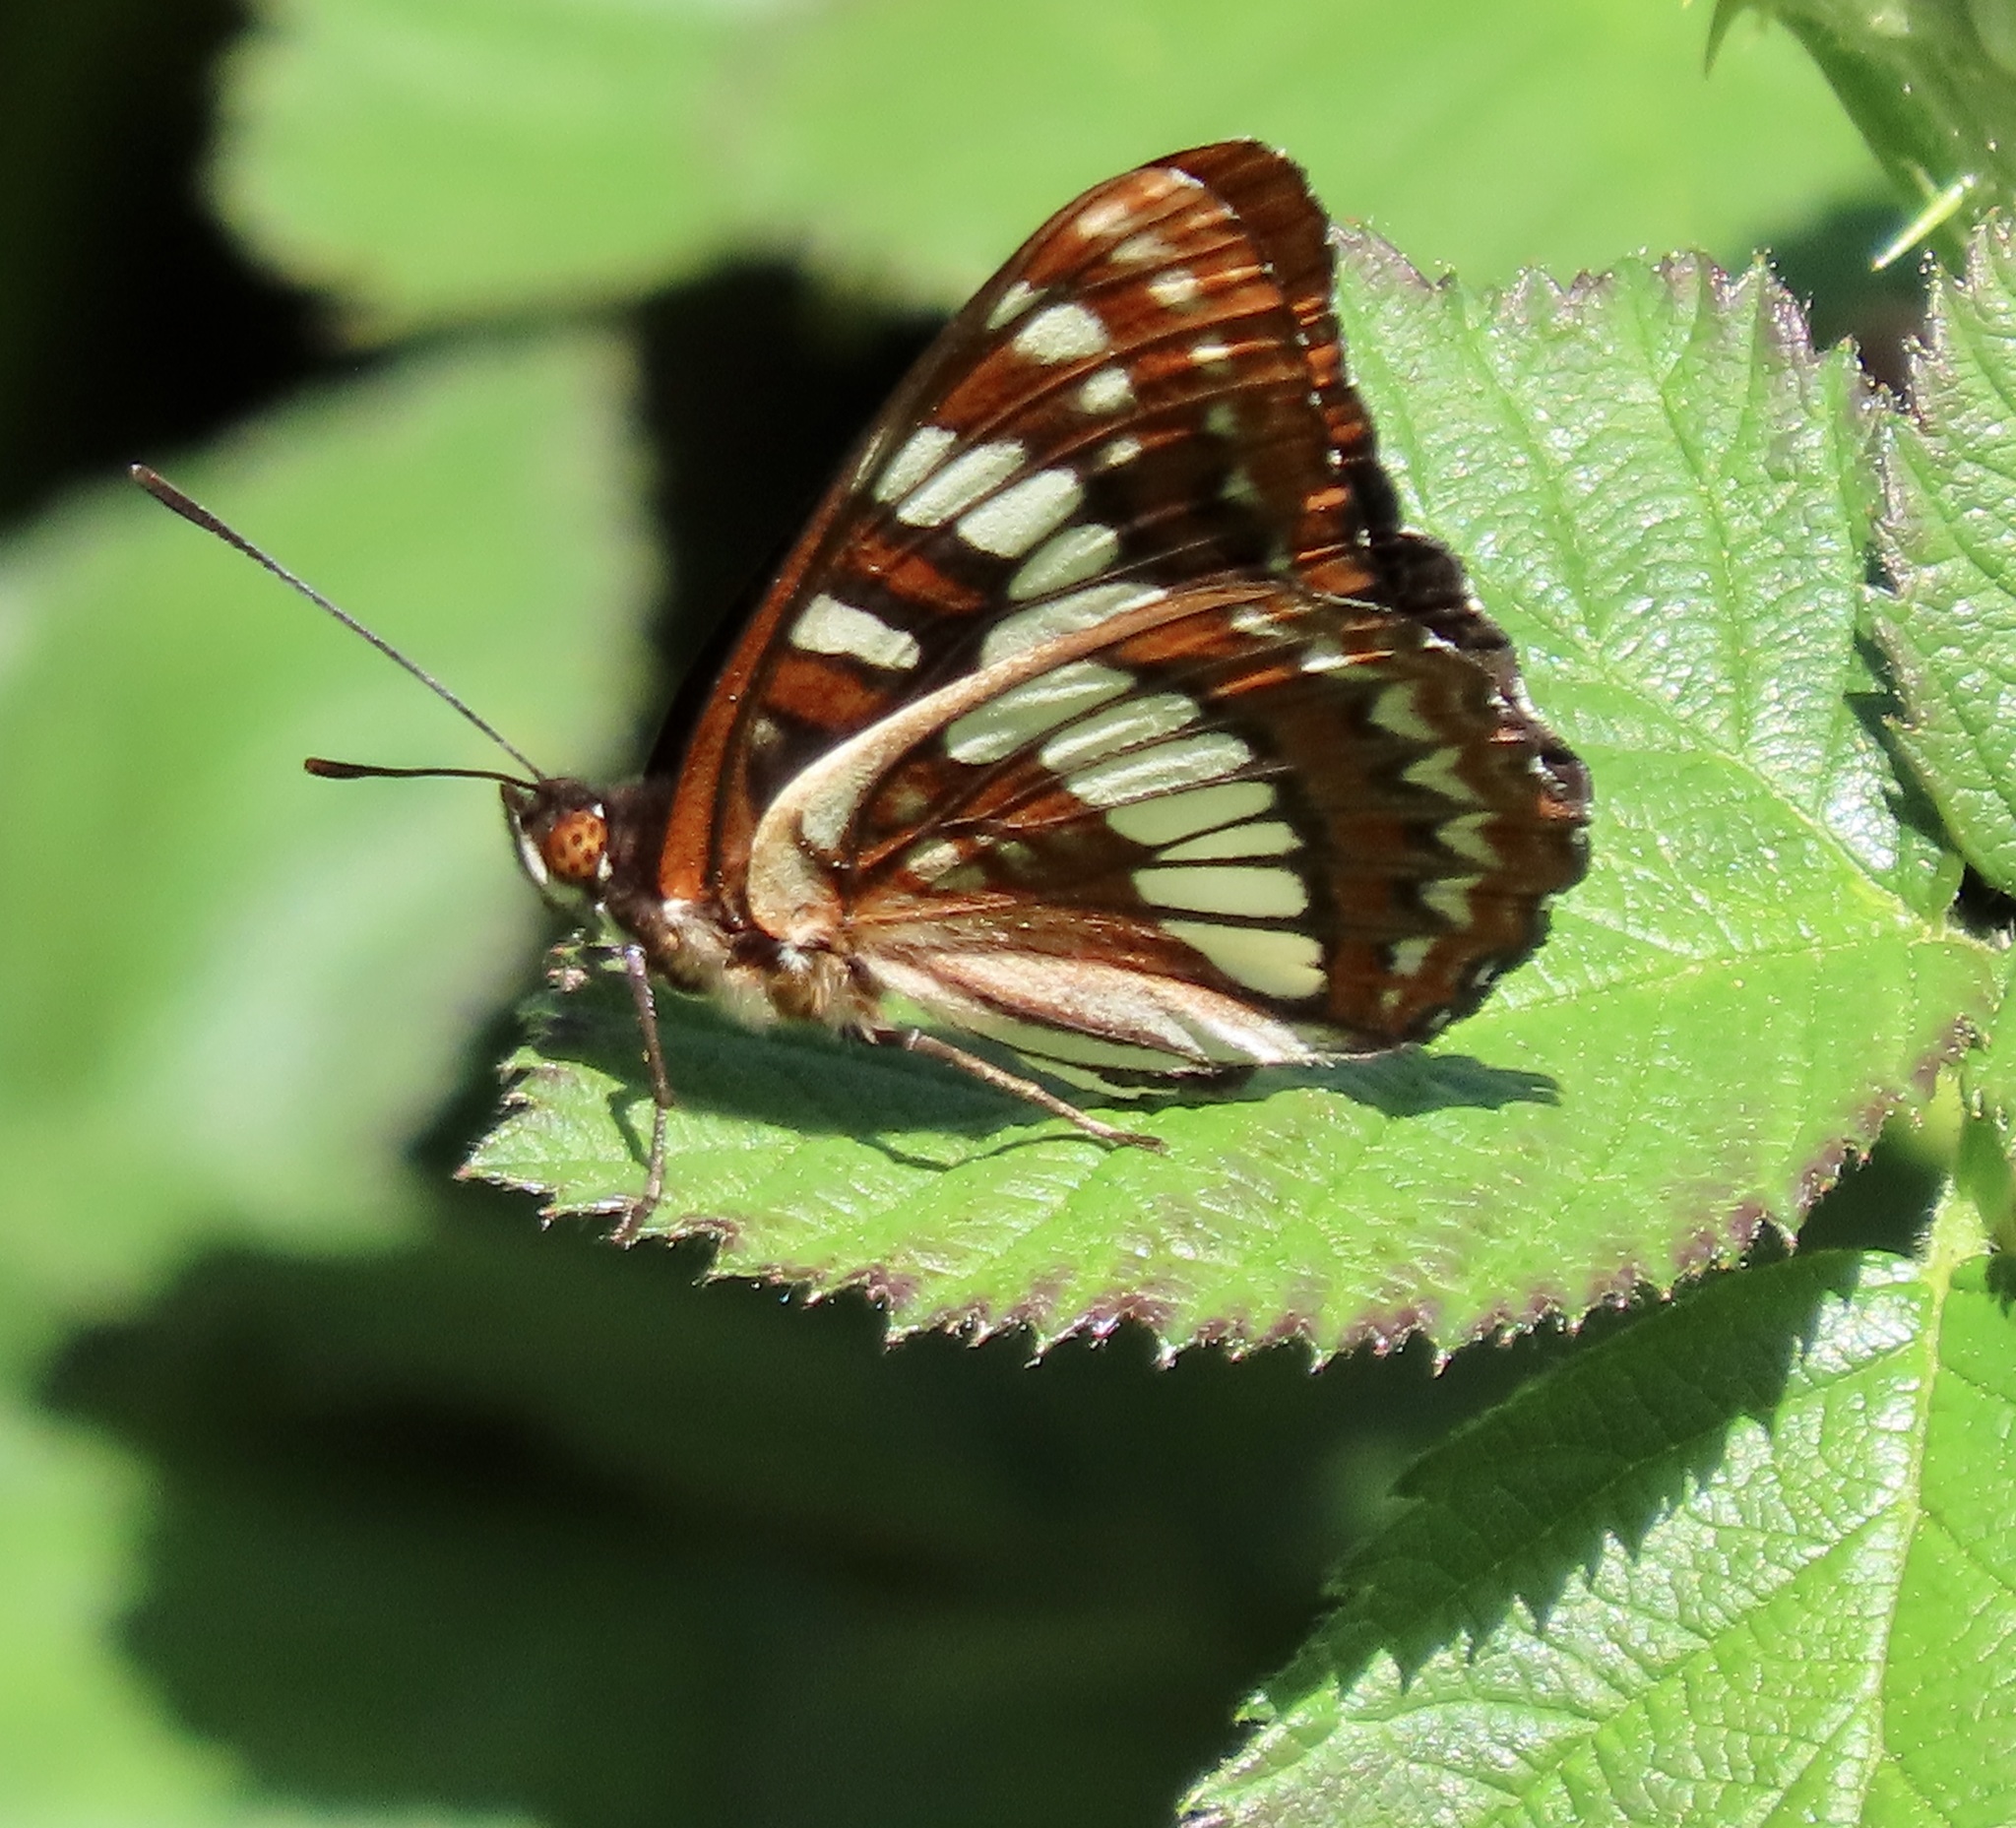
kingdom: Animalia
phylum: Arthropoda
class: Insecta
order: Lepidoptera
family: Nymphalidae
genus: Limenitis
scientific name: Limenitis lorquini
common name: Lorquin's admiral
